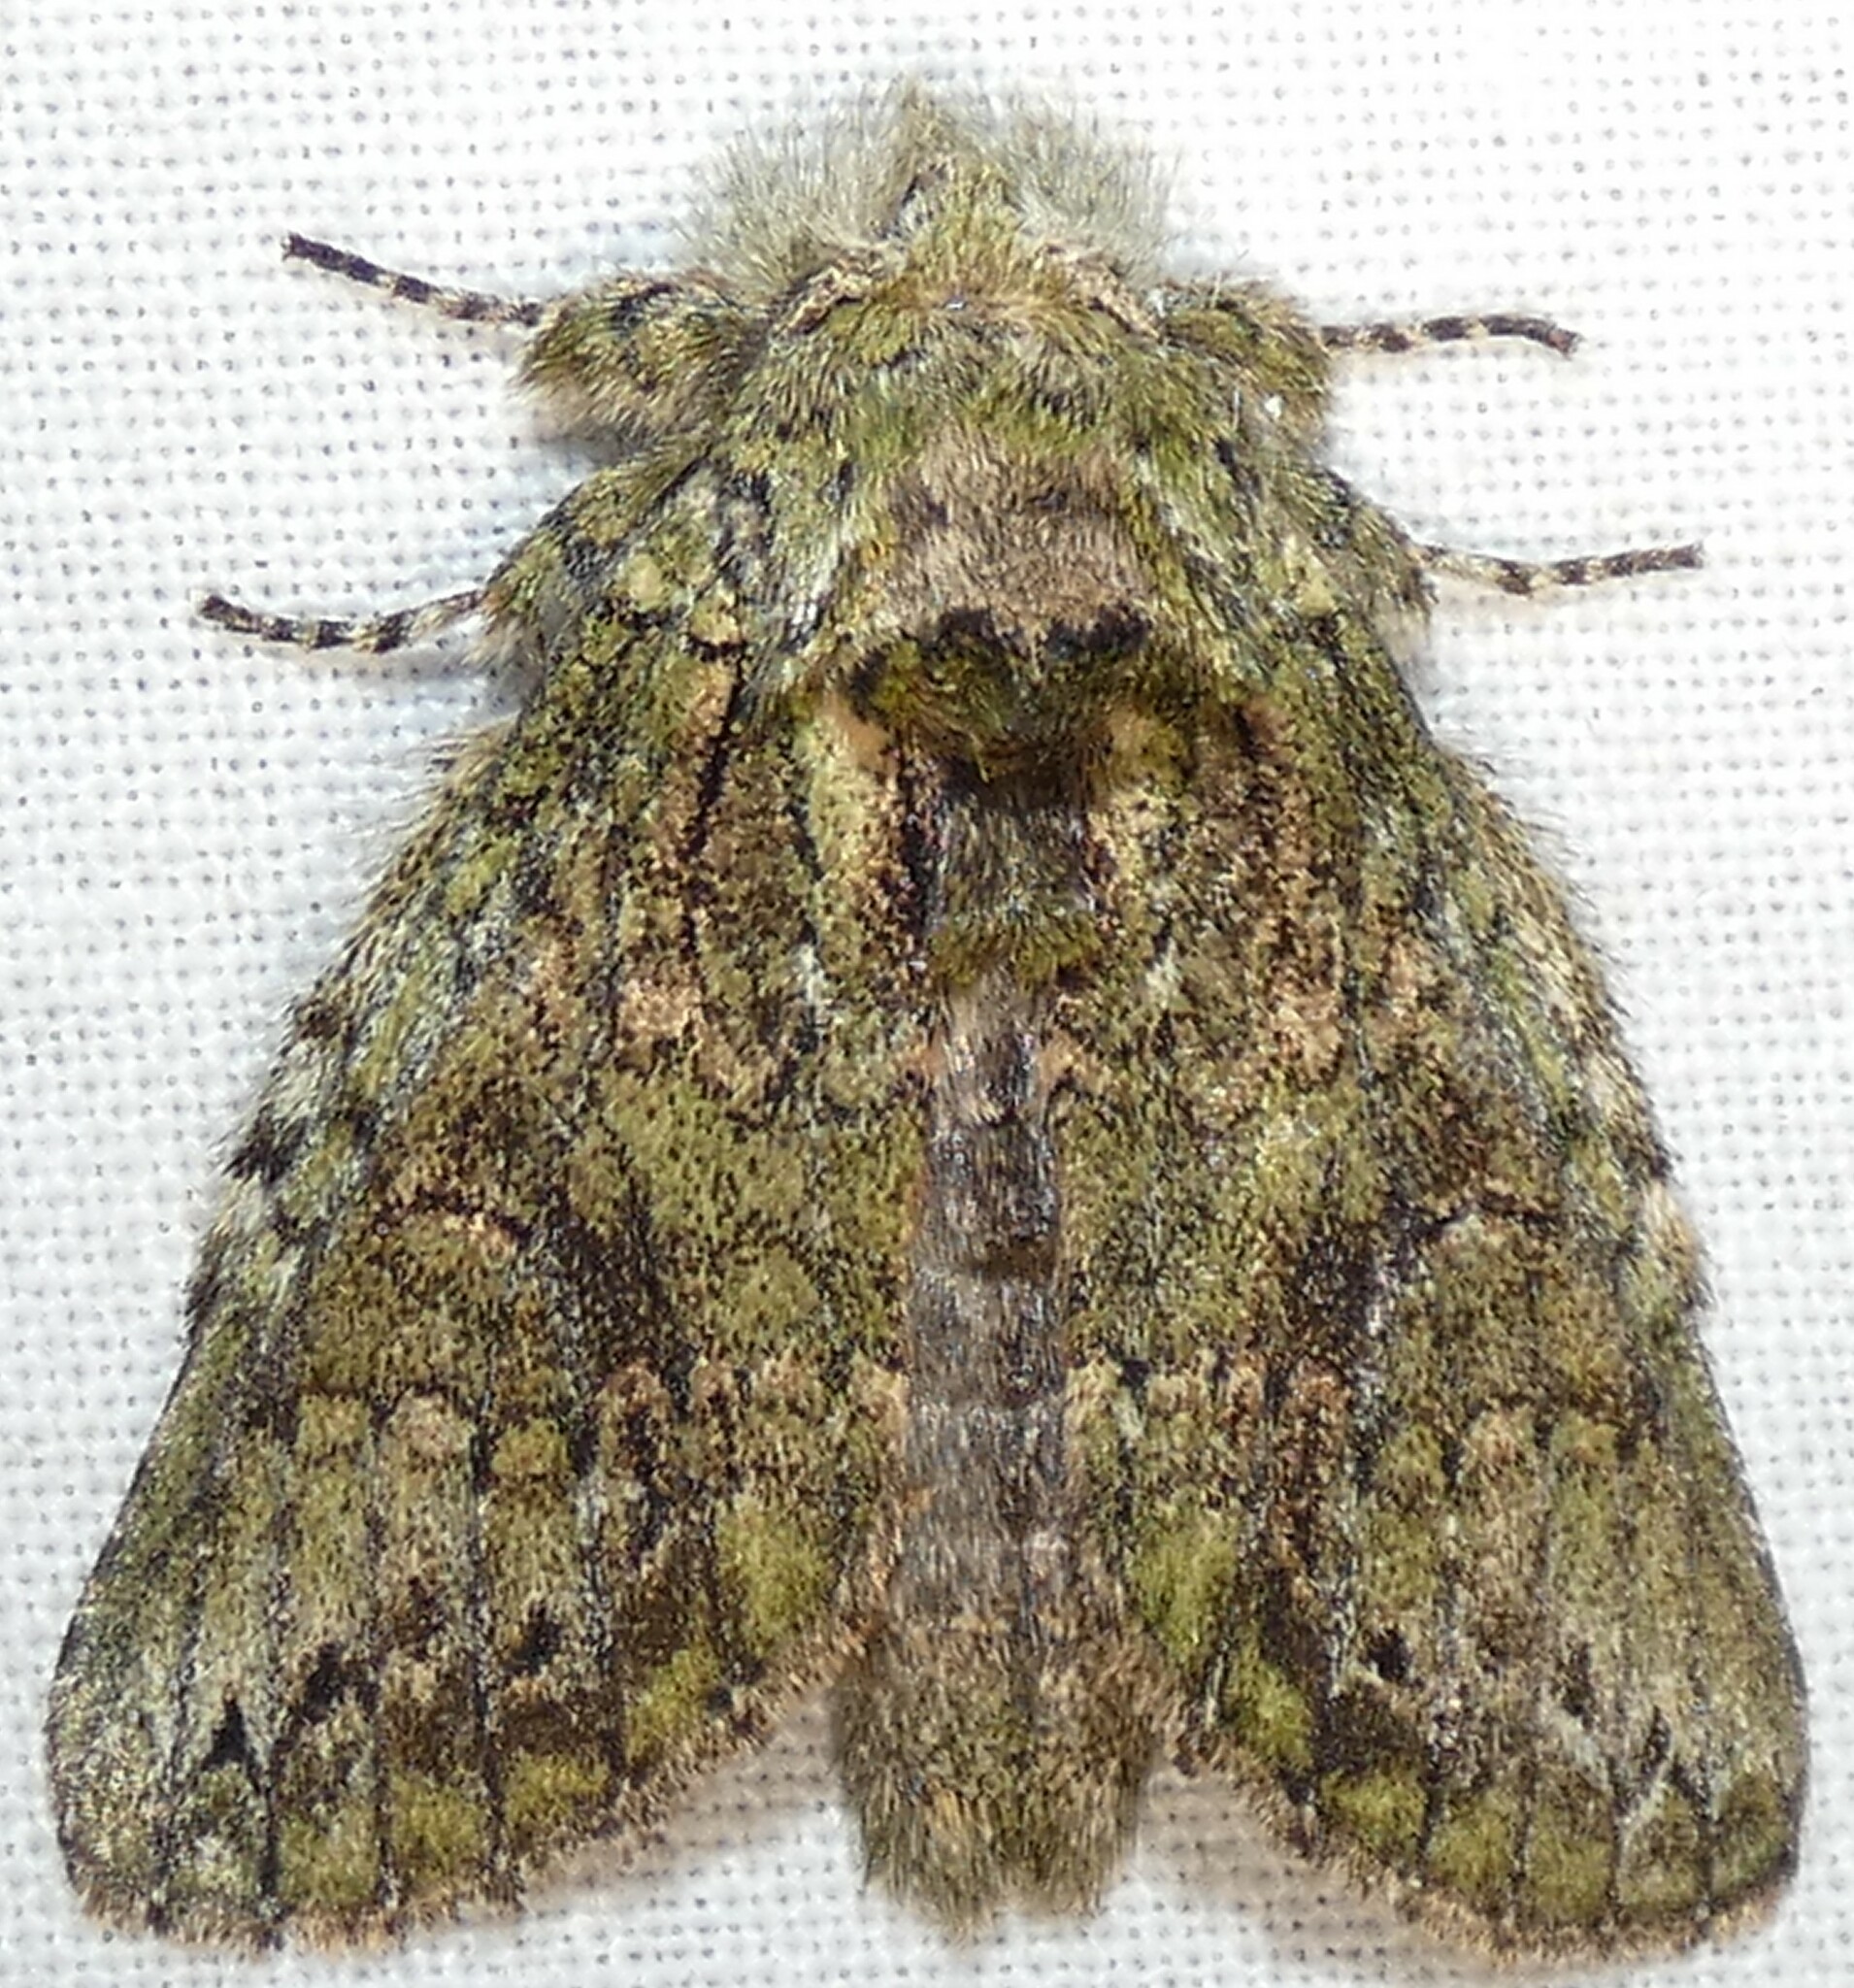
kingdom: Animalia
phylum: Arthropoda
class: Insecta
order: Lepidoptera
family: Notodontidae
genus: Heterocampa
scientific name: Heterocampa umbrata
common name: White-blotched heterocampa
